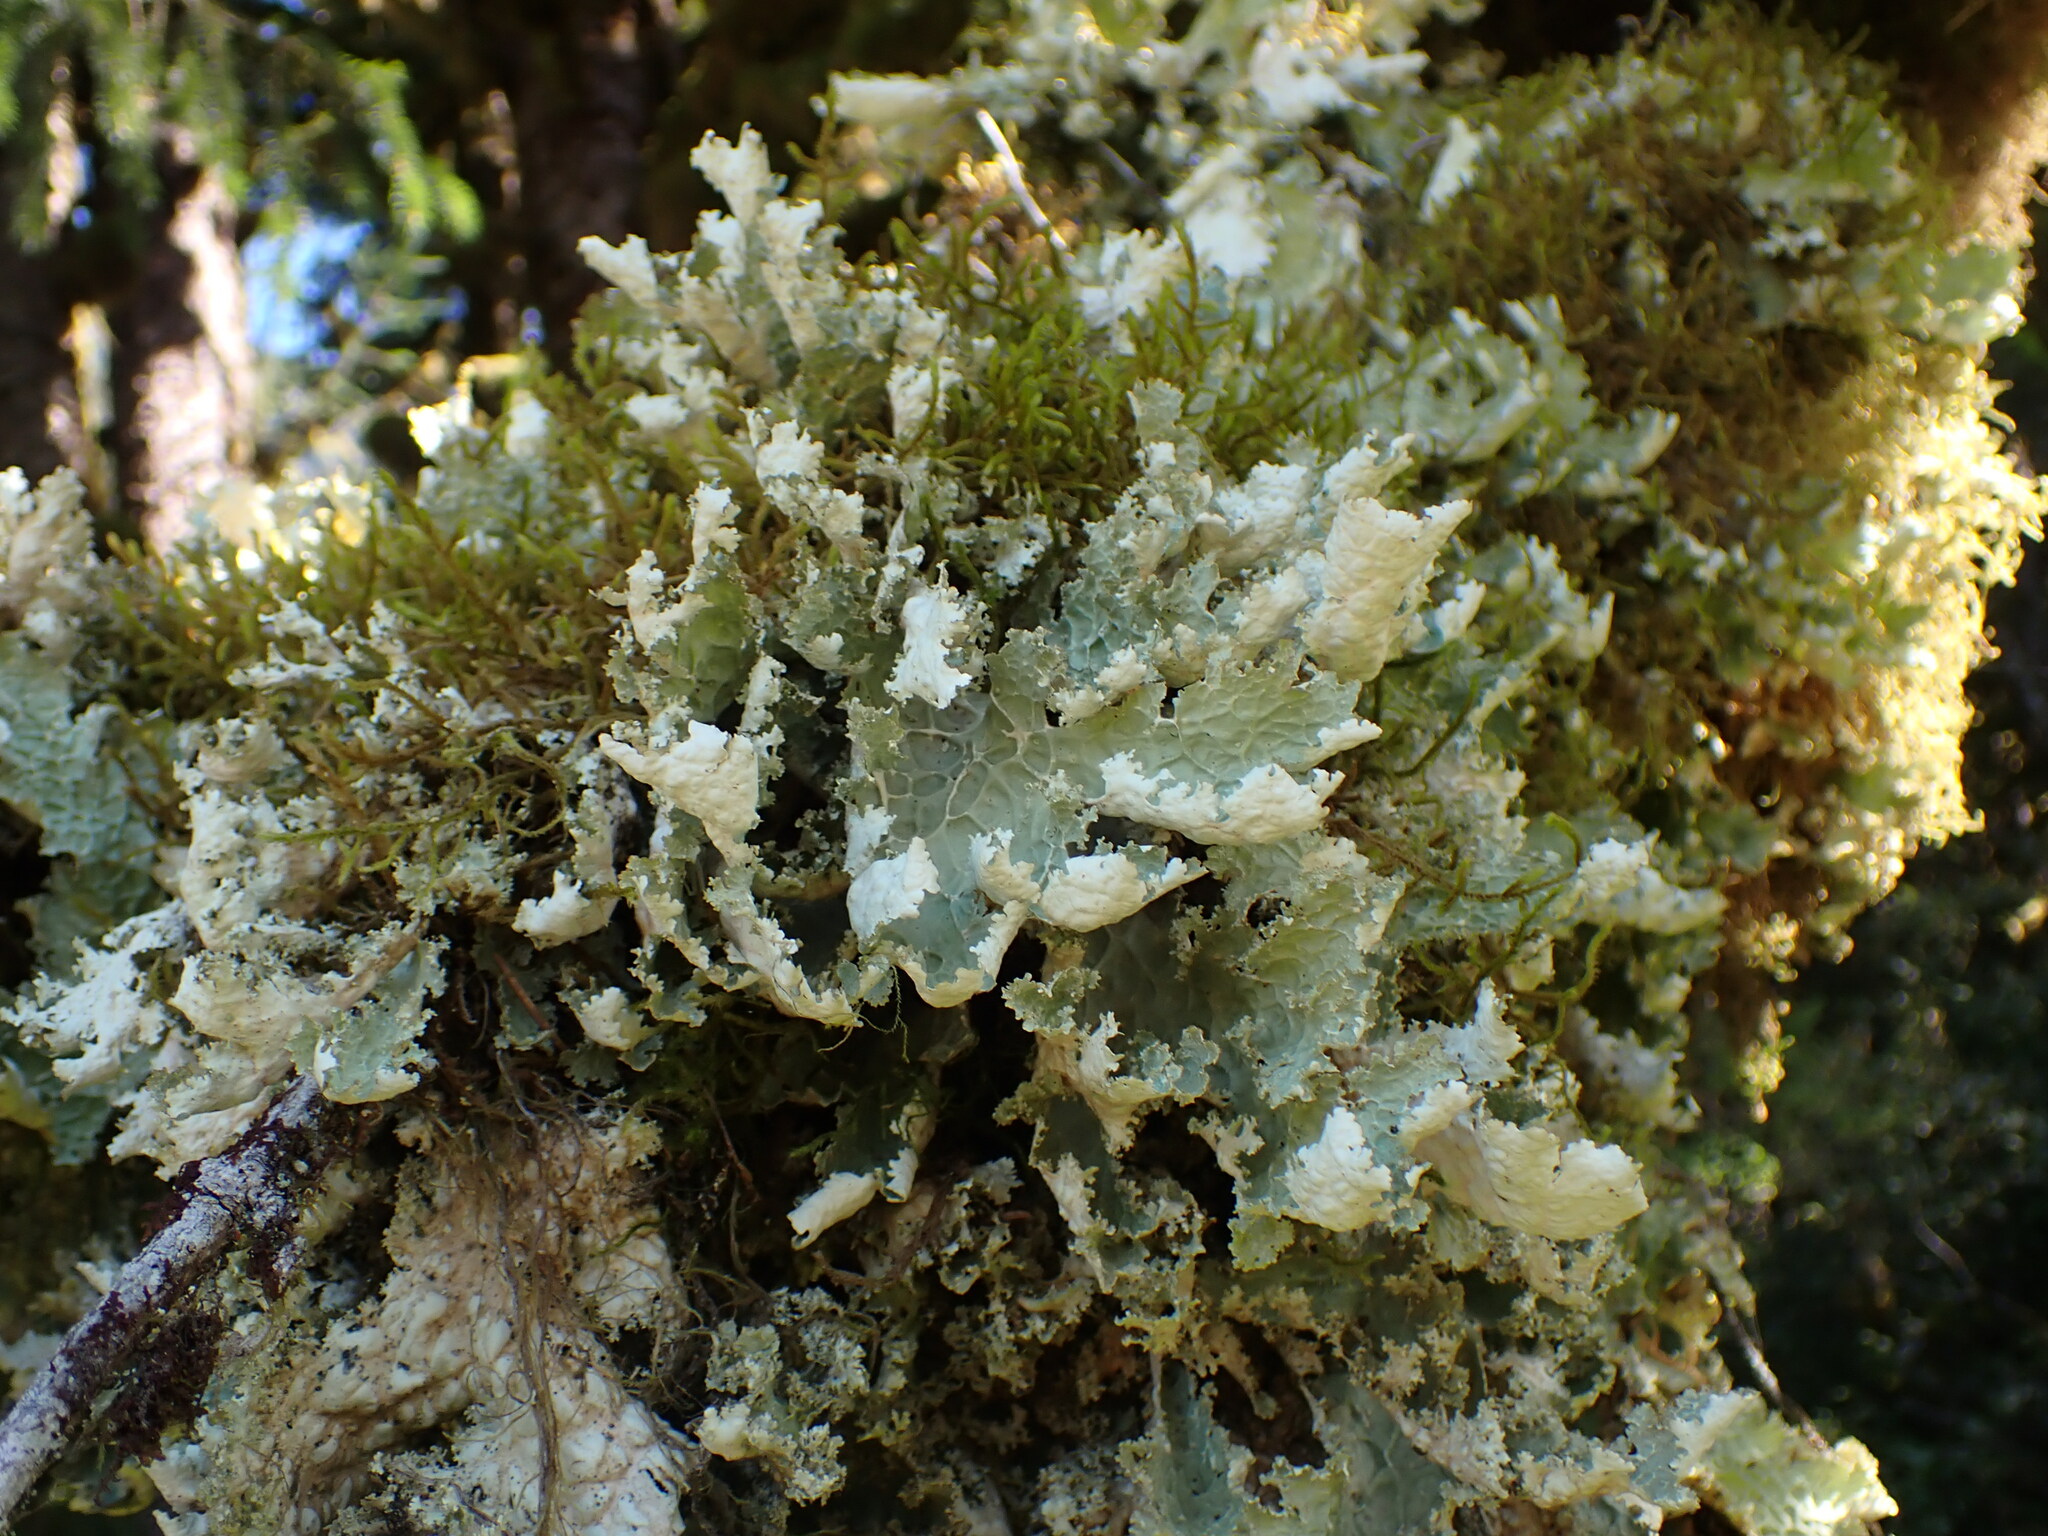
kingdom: Fungi
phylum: Ascomycota
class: Lecanoromycetes
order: Peltigerales
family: Lobariaceae
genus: Lobaria
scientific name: Lobaria oregana
